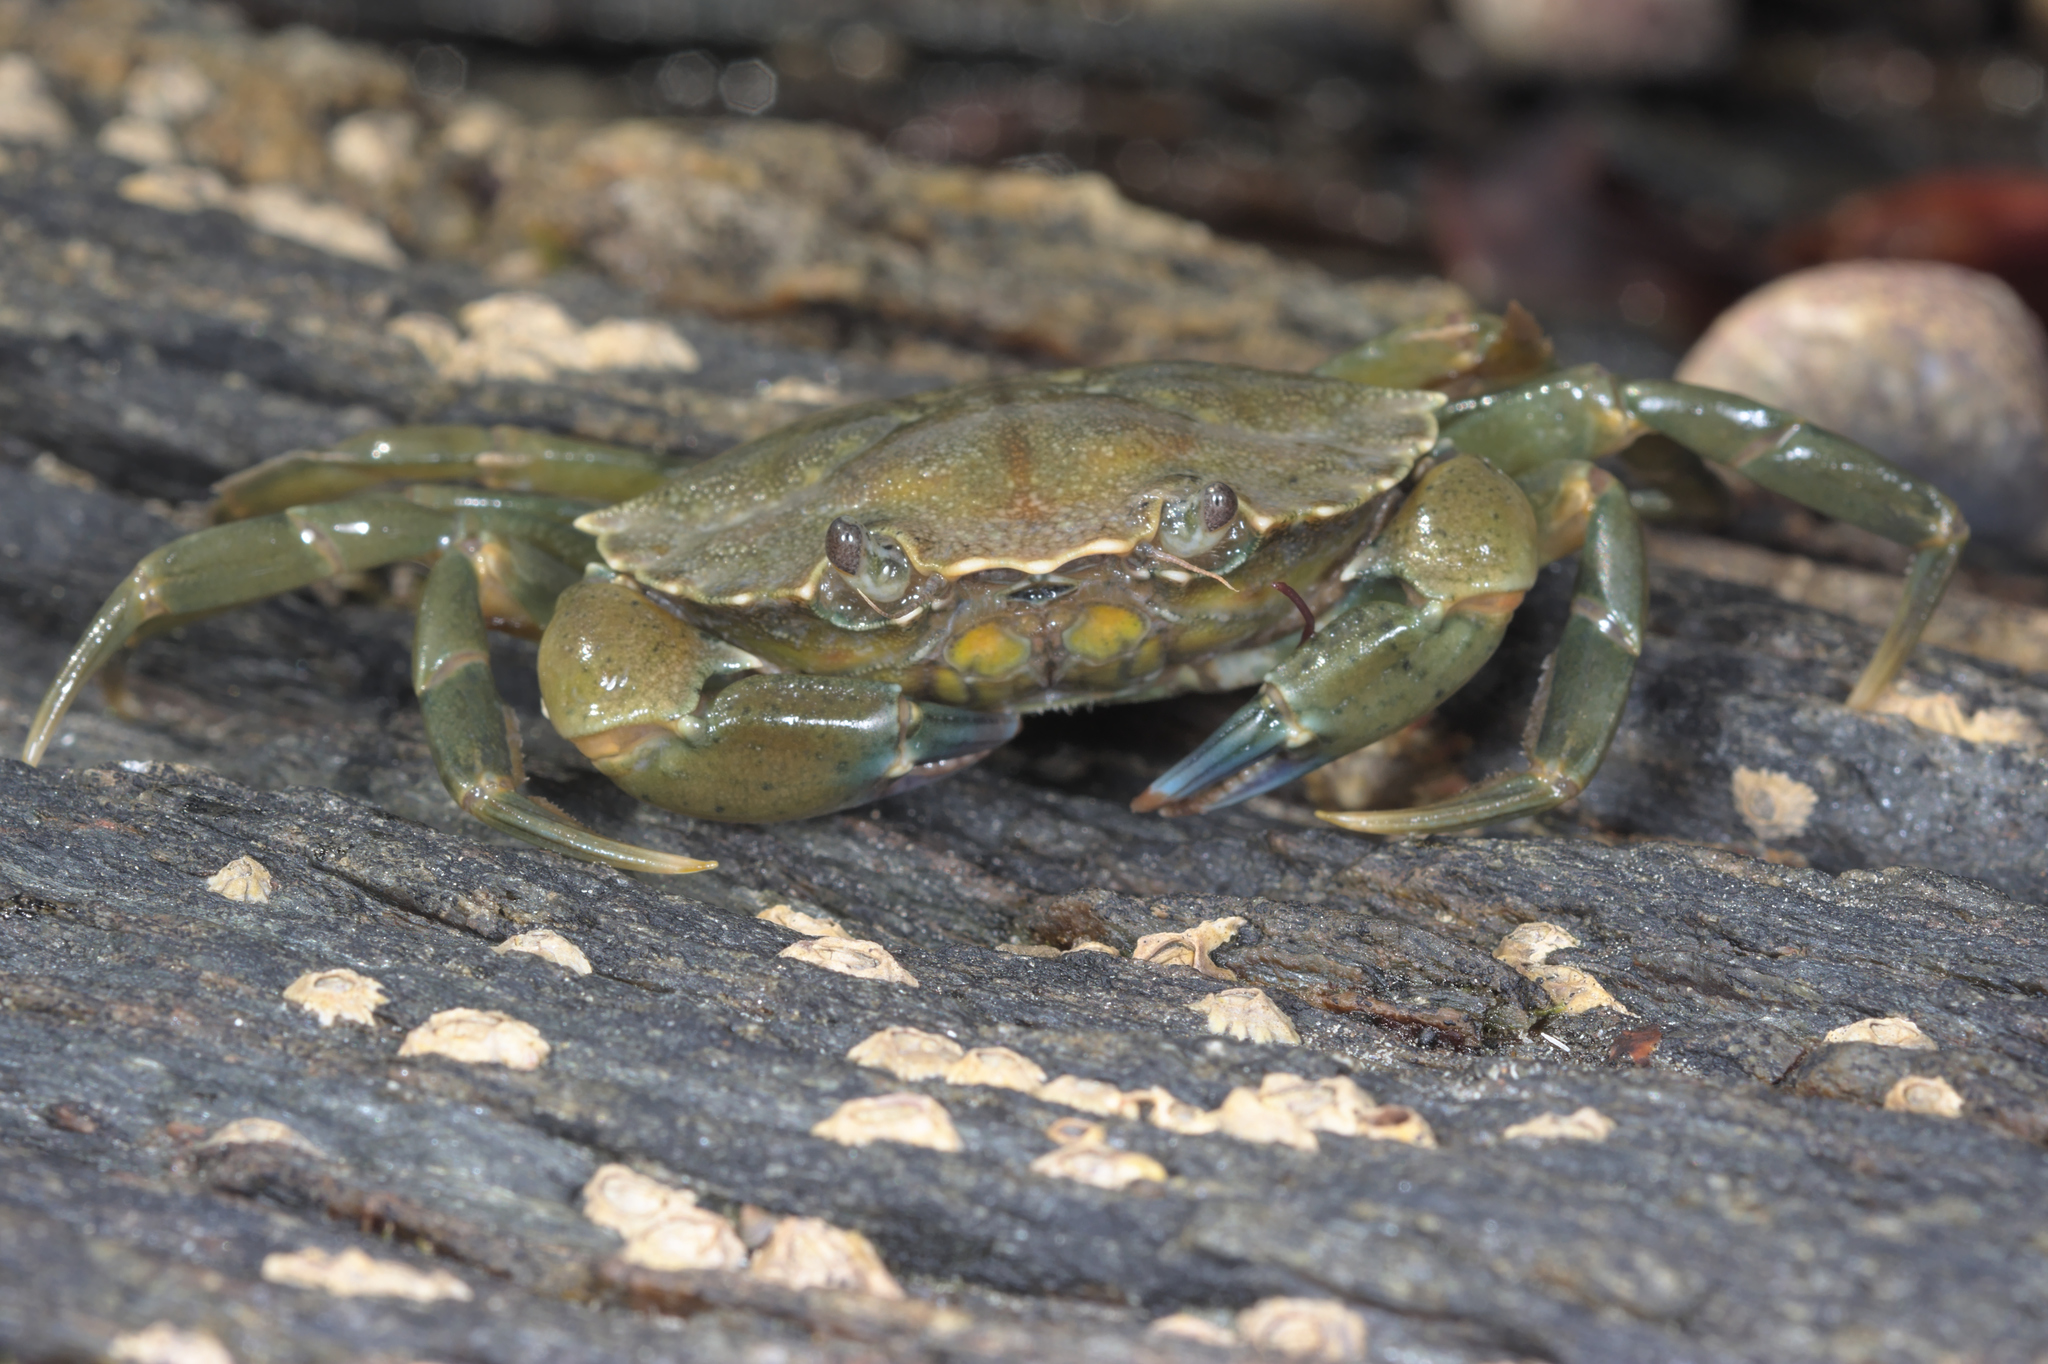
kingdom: Animalia
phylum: Arthropoda
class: Malacostraca
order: Decapoda
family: Carcinidae
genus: Carcinus
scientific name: Carcinus maenas
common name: European green crab
